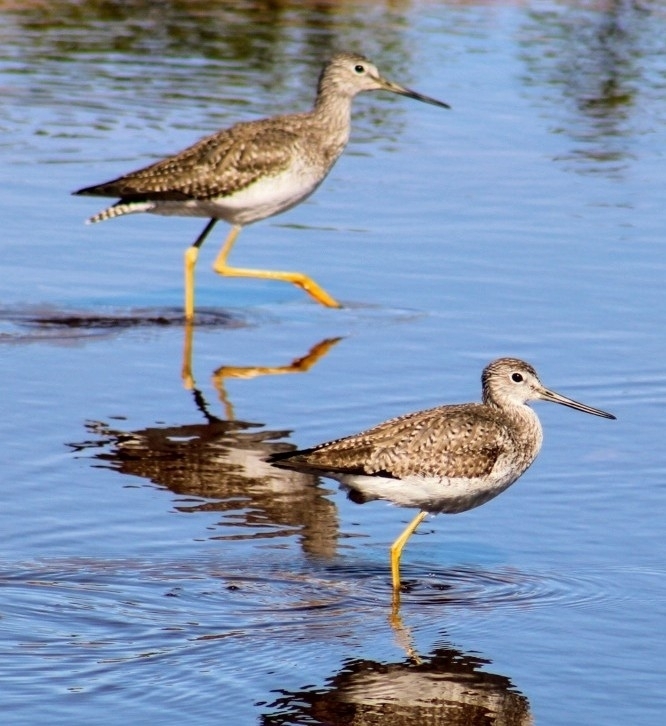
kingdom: Animalia
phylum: Chordata
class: Aves
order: Charadriiformes
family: Scolopacidae
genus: Tringa
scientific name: Tringa melanoleuca
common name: Greater yellowlegs
